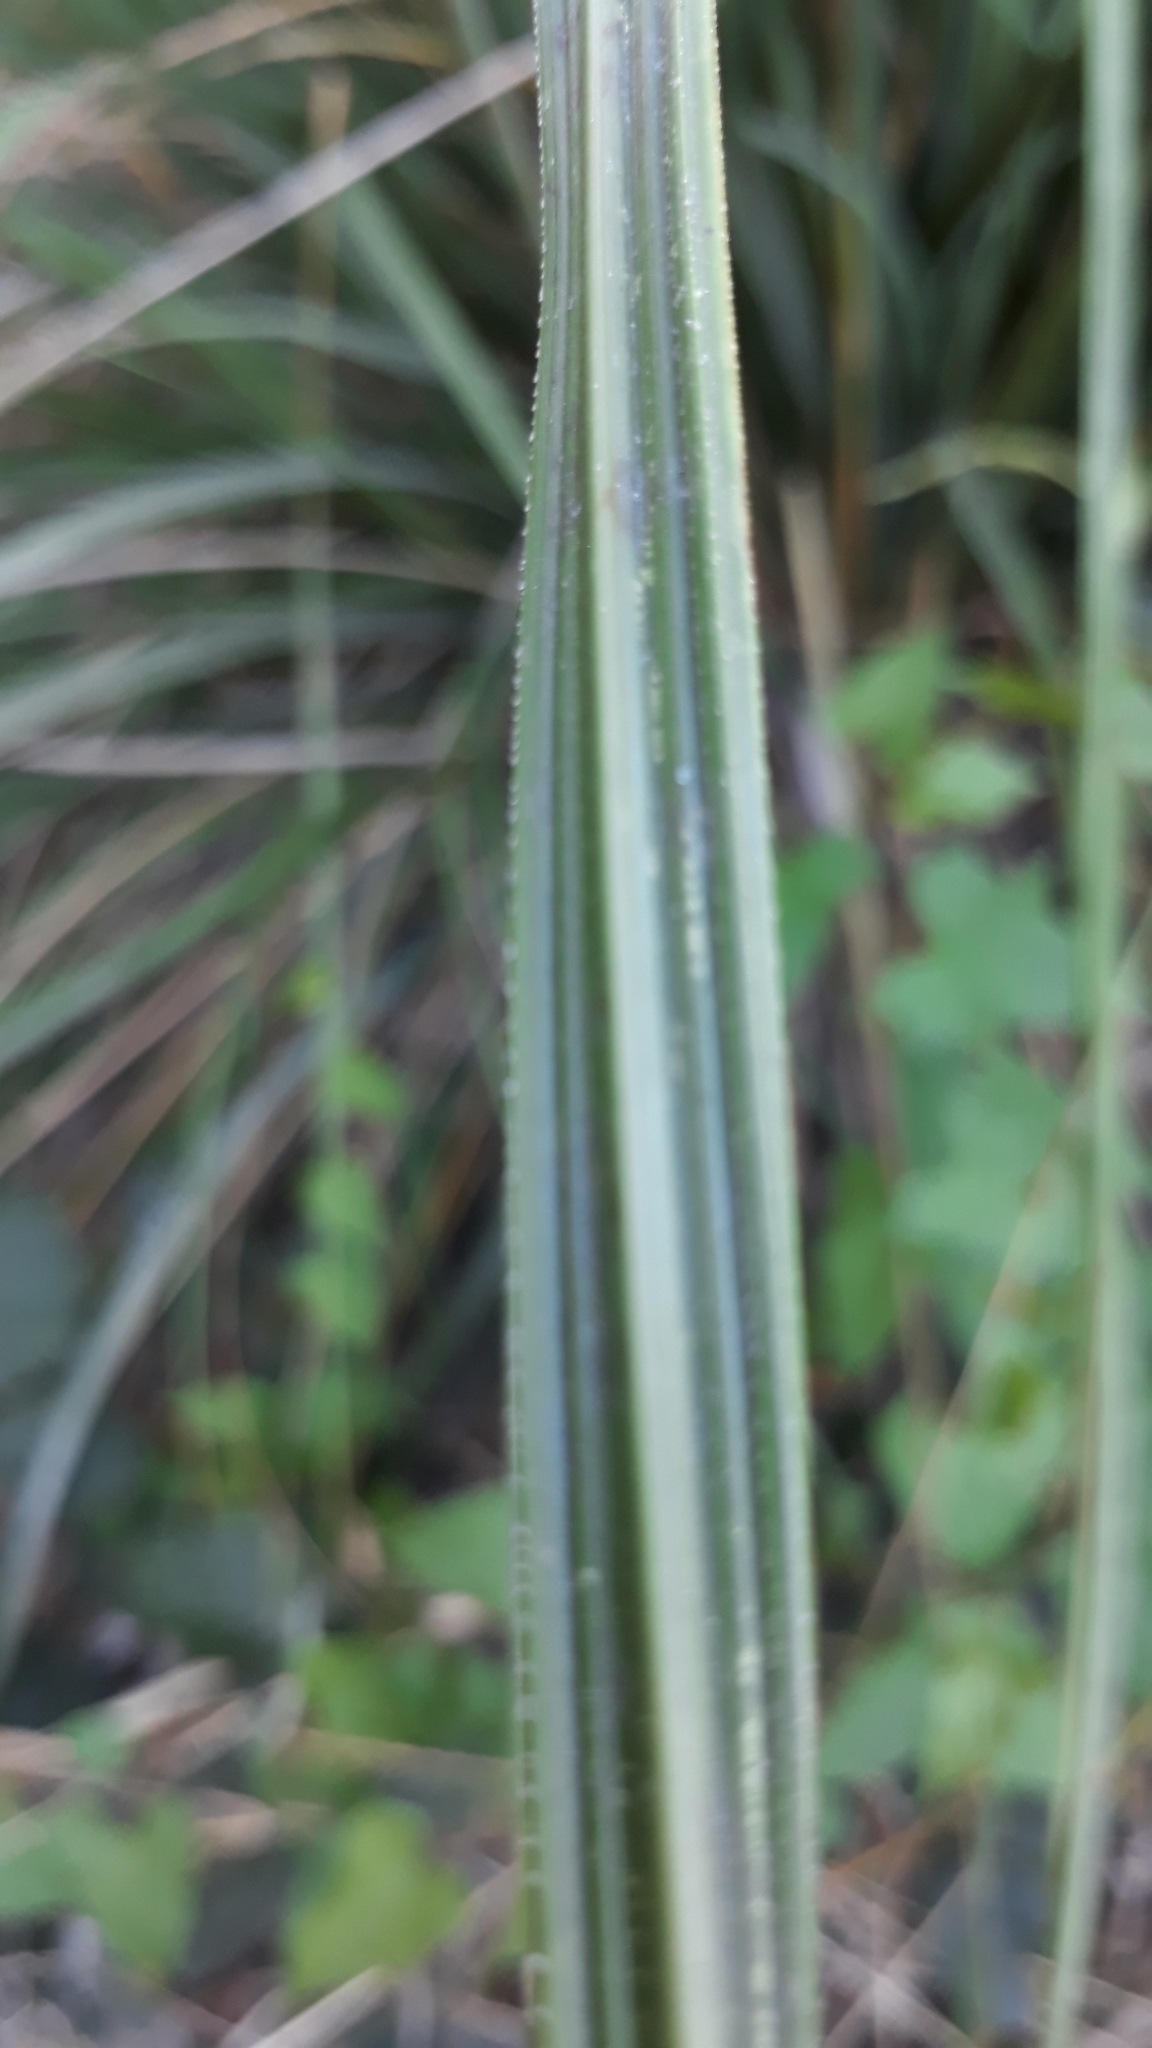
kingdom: Plantae
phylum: Tracheophyta
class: Liliopsida
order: Poales
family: Poaceae
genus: Austroderia
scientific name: Austroderia richardii
